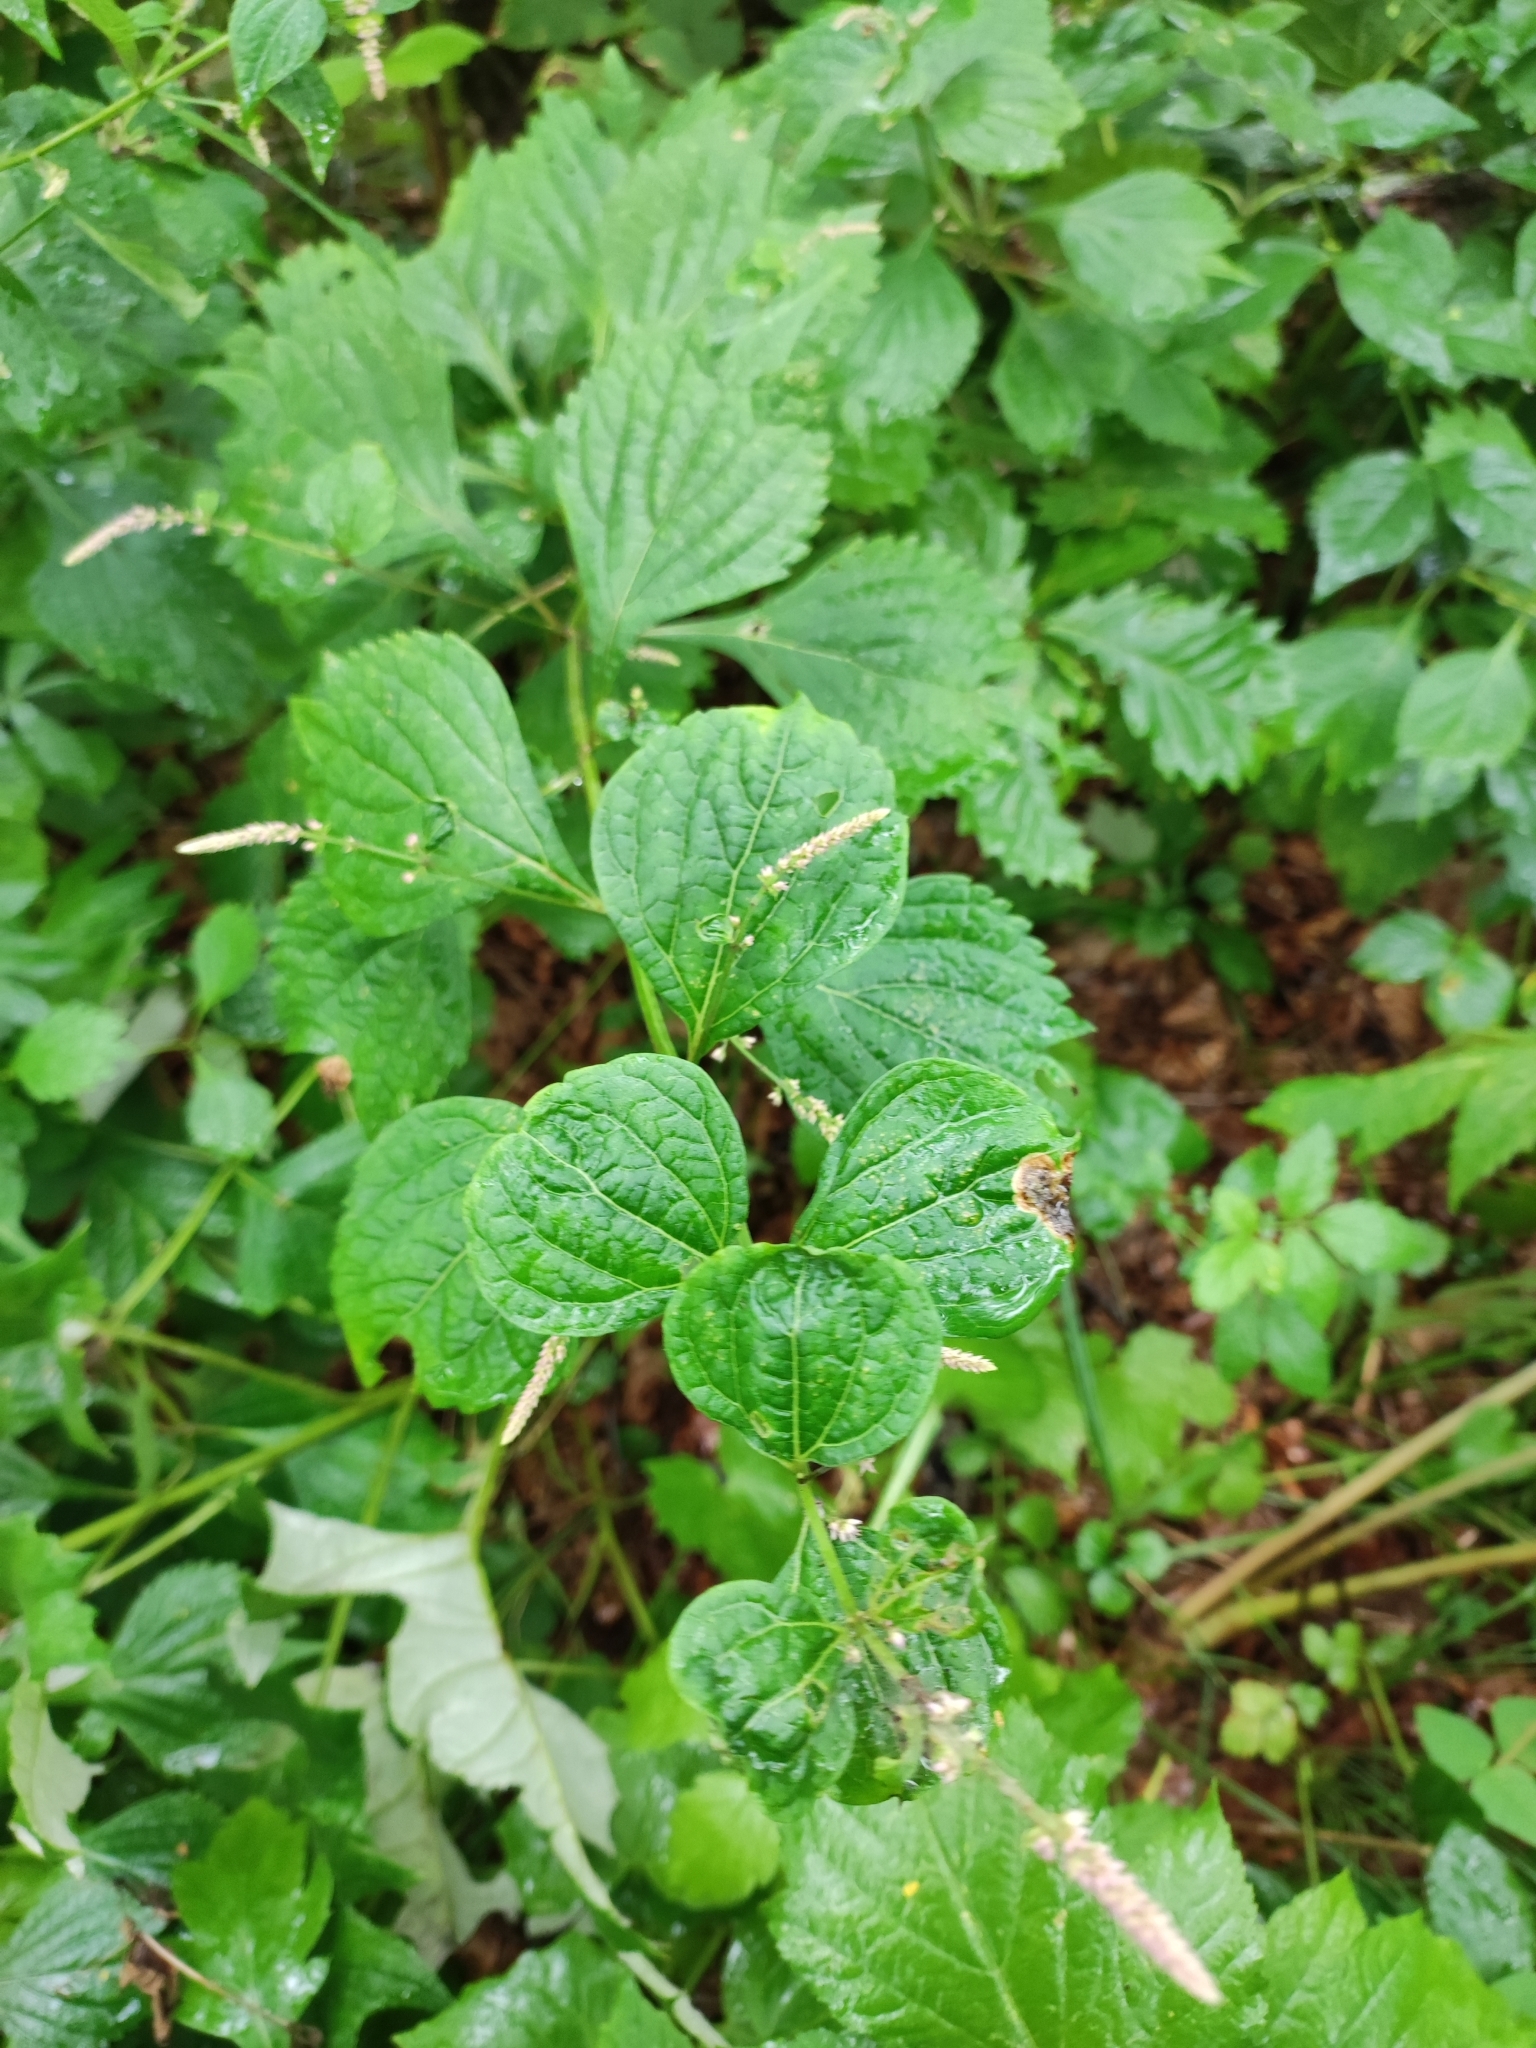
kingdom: Plantae
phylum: Tracheophyta
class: Magnoliopsida
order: Lamiales
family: Lamiaceae
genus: Isodon
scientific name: Isodon excisus
